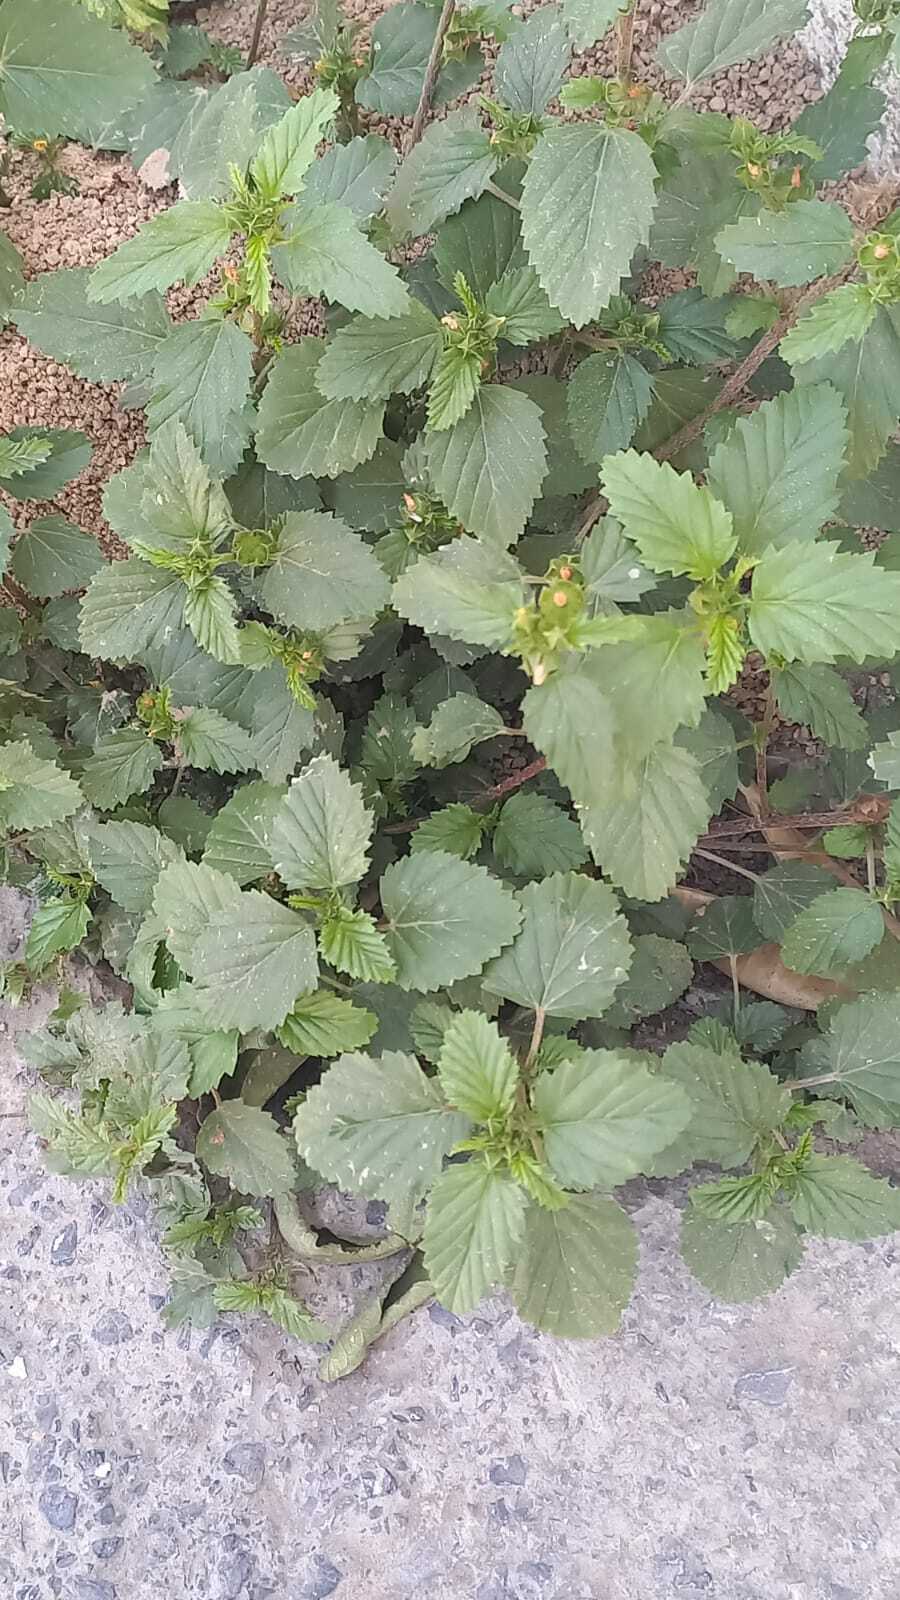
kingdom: Plantae
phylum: Tracheophyta
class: Magnoliopsida
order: Malvales
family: Malvaceae
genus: Malvastrum
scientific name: Malvastrum coromandelianum
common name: Threelobe false mallow
